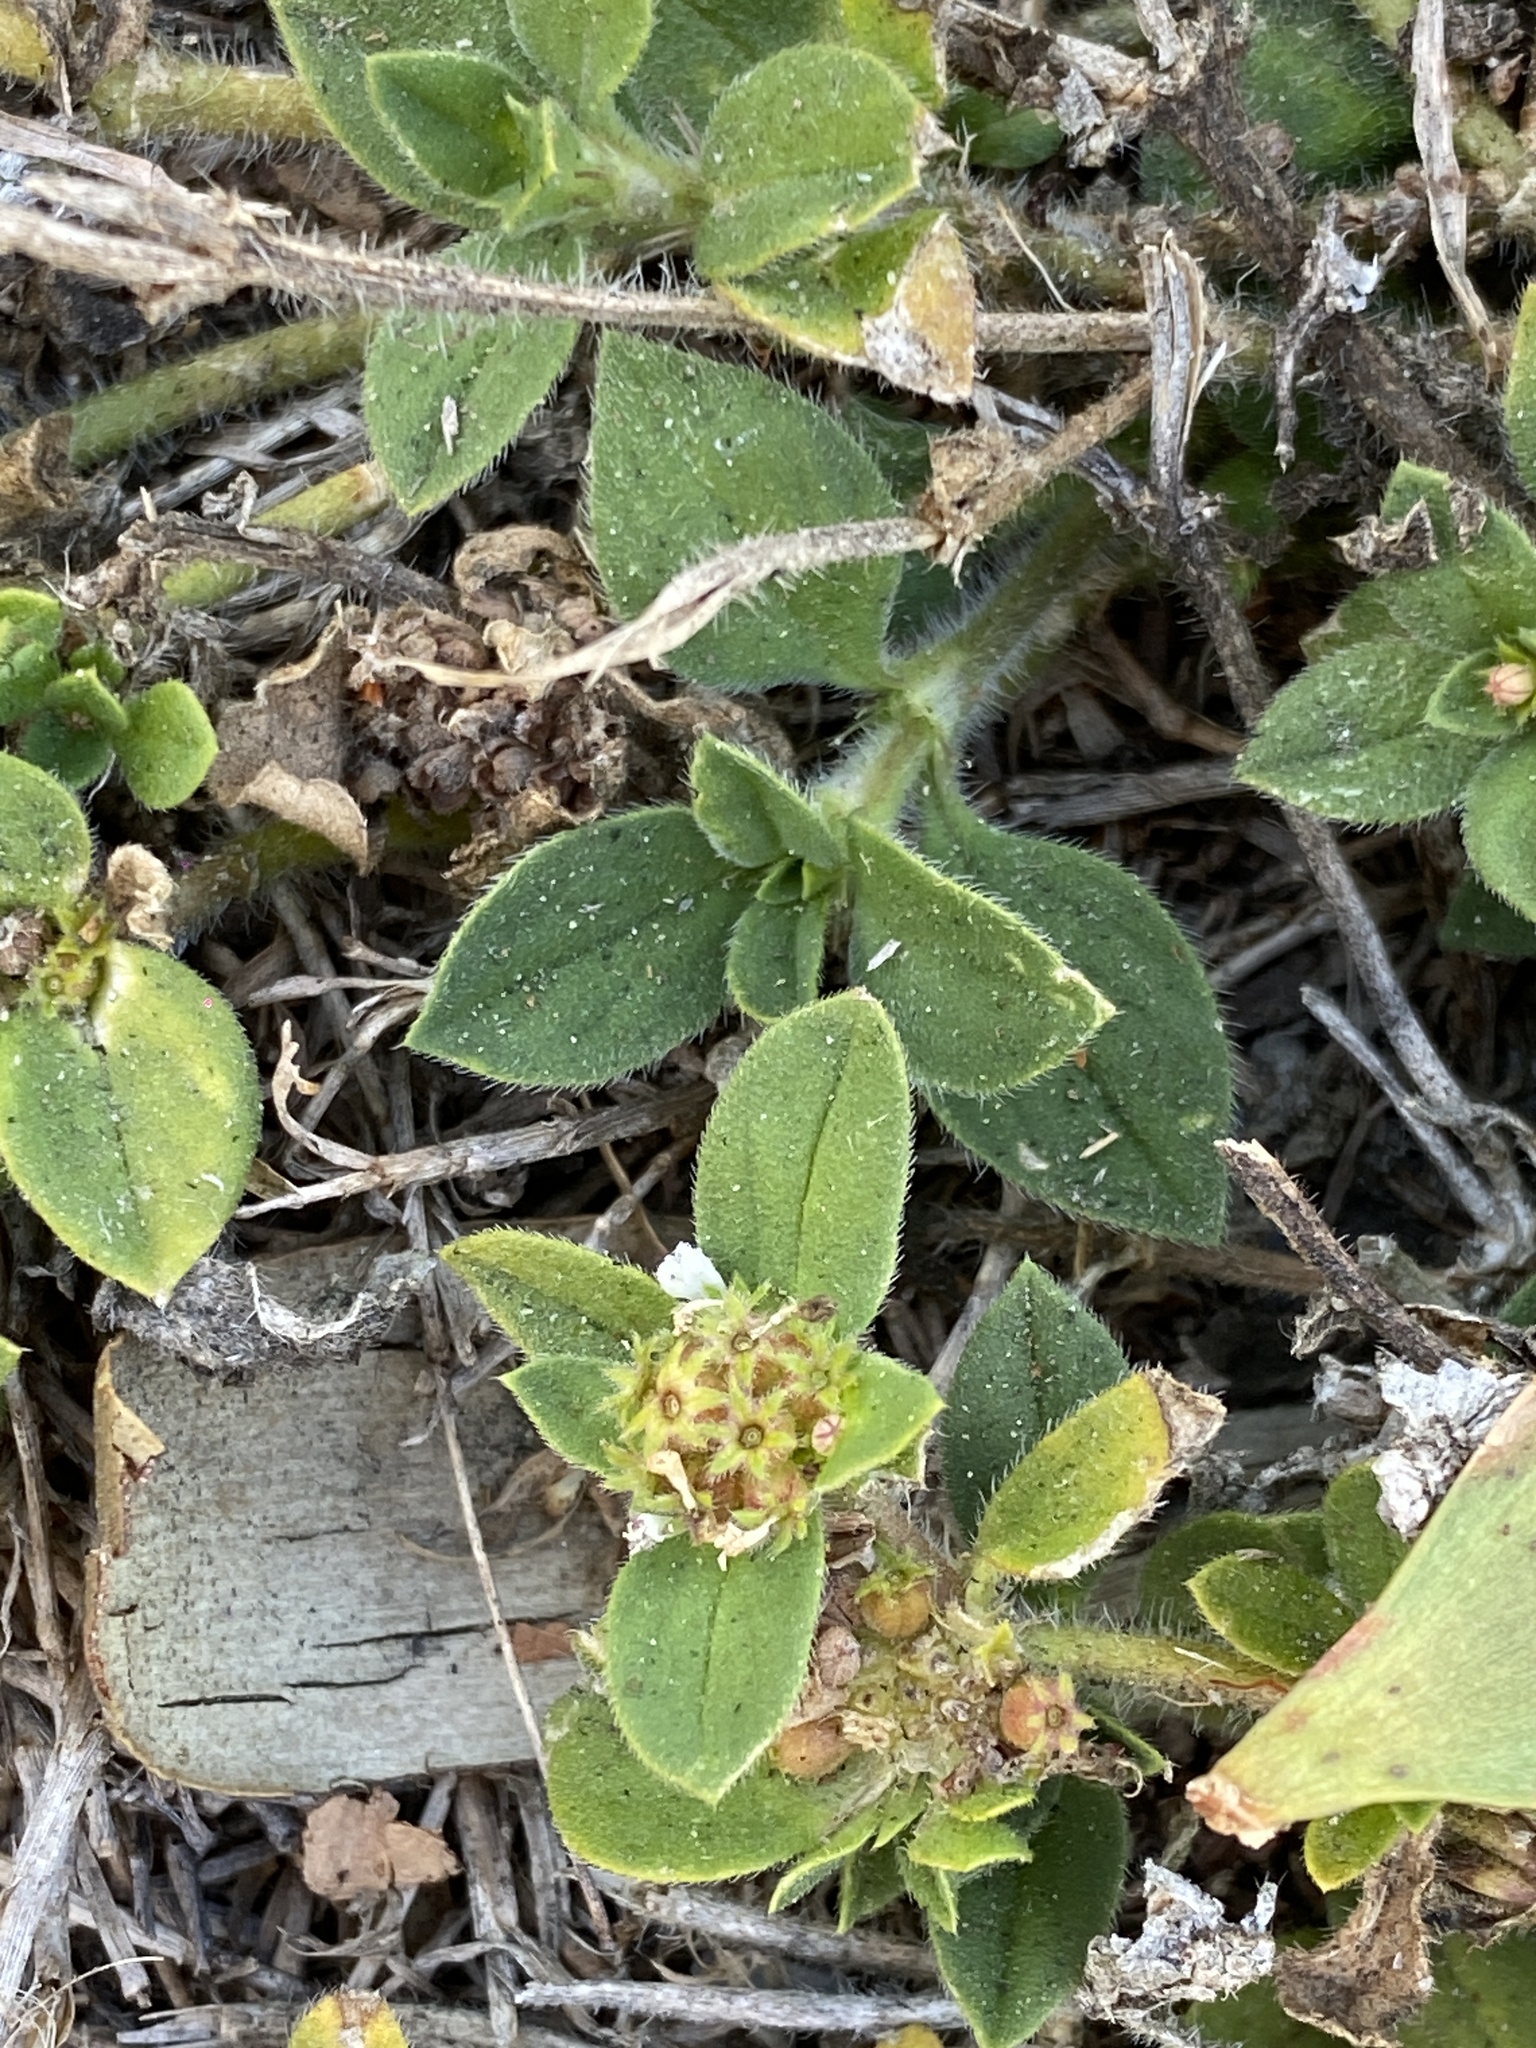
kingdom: Plantae
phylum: Tracheophyta
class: Magnoliopsida
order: Gentianales
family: Rubiaceae
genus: Richardia
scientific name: Richardia brasiliensis
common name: Tropical mexican clover
